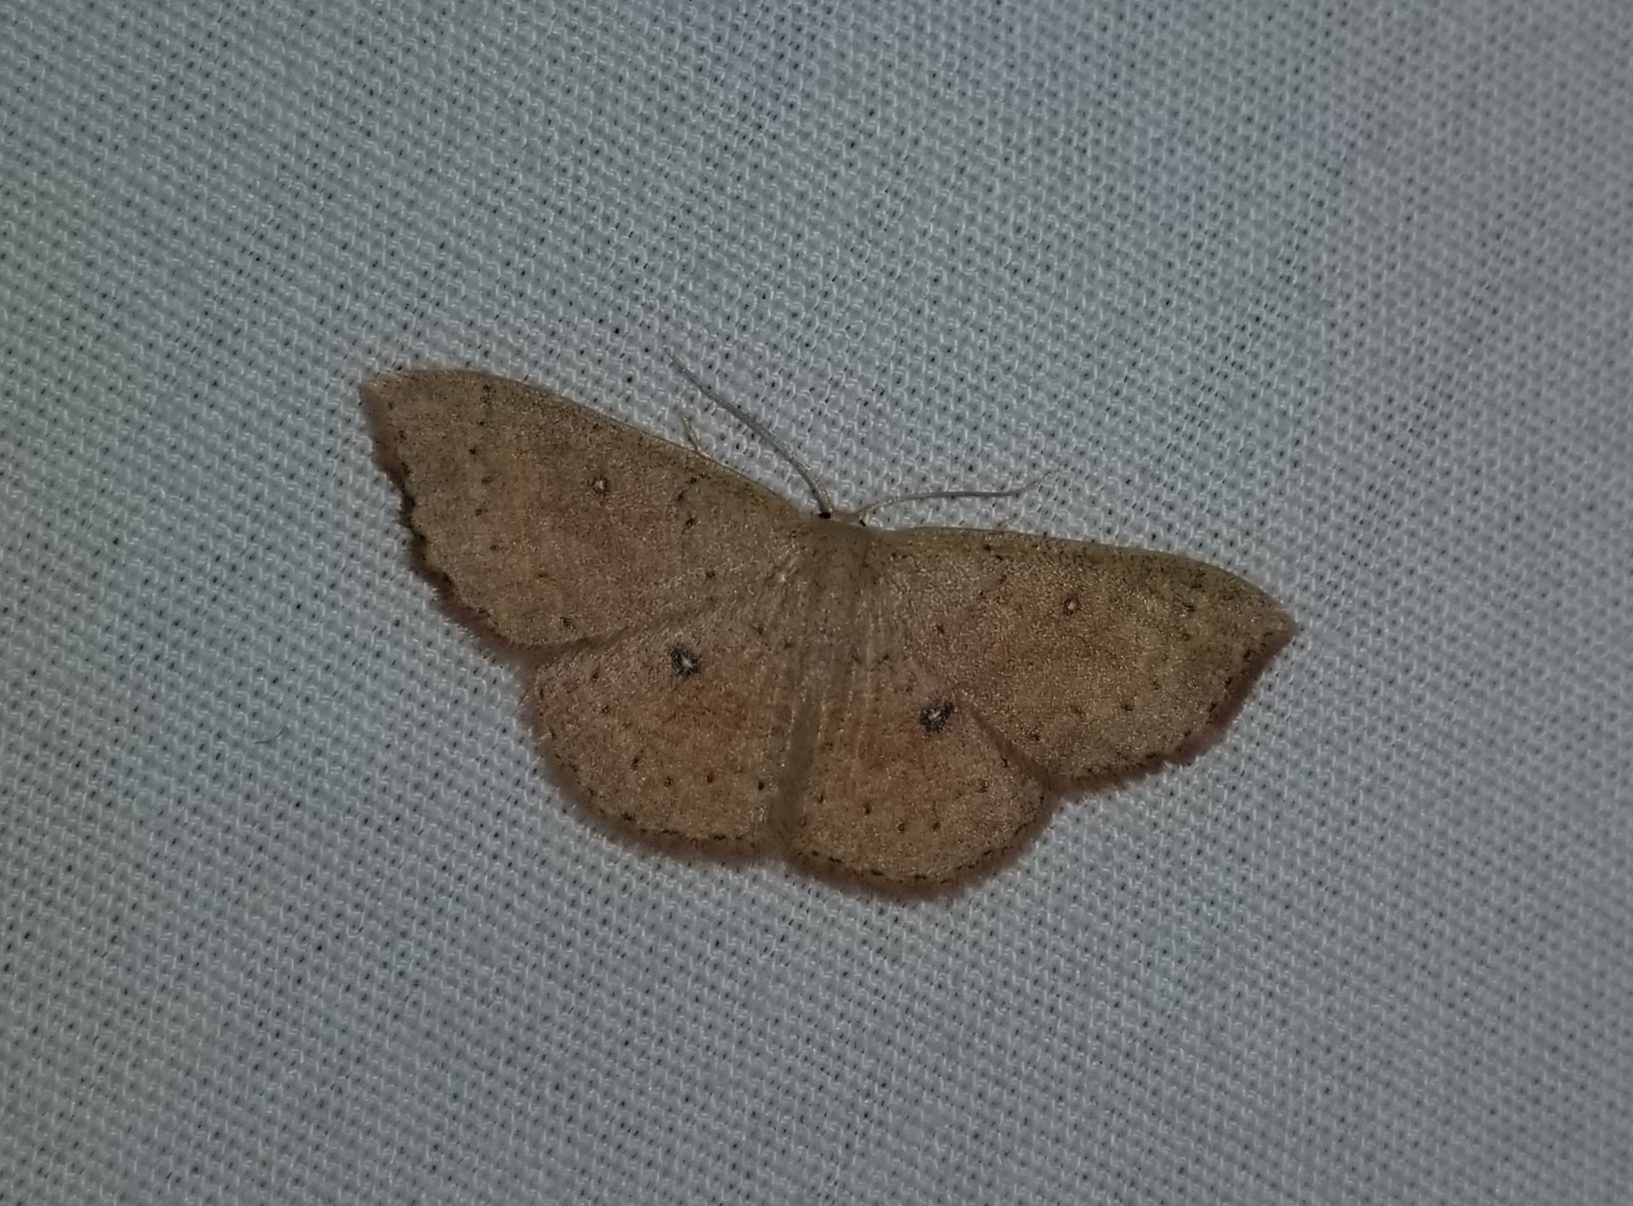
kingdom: Animalia
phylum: Arthropoda
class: Insecta
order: Lepidoptera
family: Geometridae
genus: Cyclophora
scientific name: Cyclophora packardi
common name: Packard's wave
